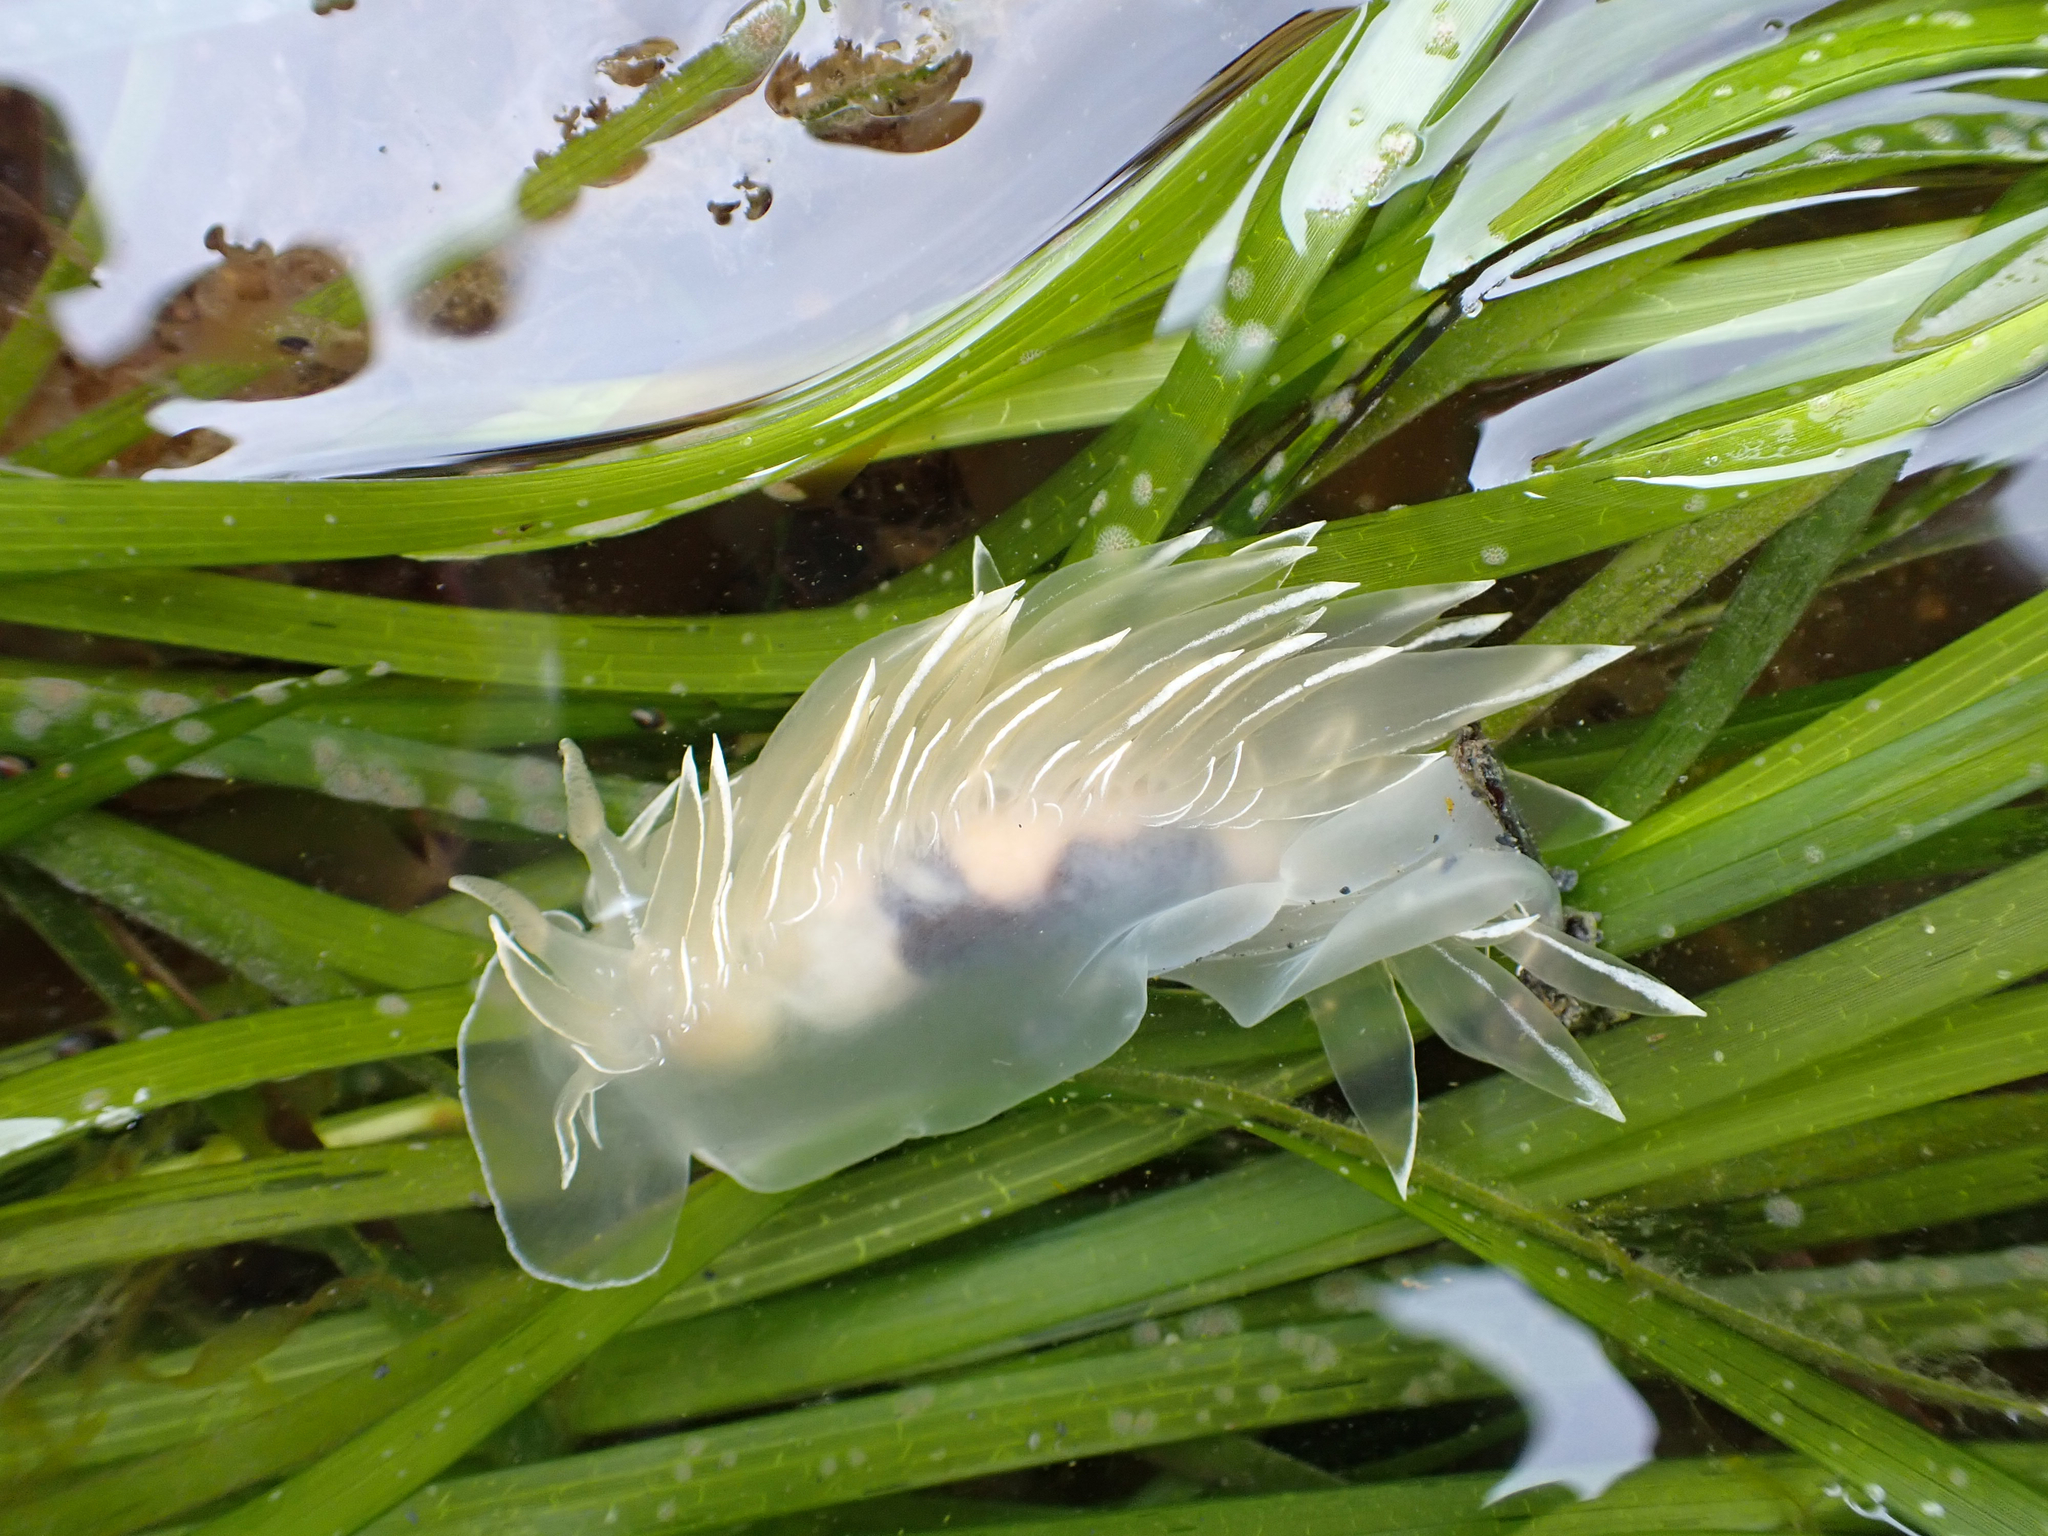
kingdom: Animalia
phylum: Mollusca
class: Gastropoda
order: Nudibranchia
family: Dironidae
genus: Dirona
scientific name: Dirona albolineata
